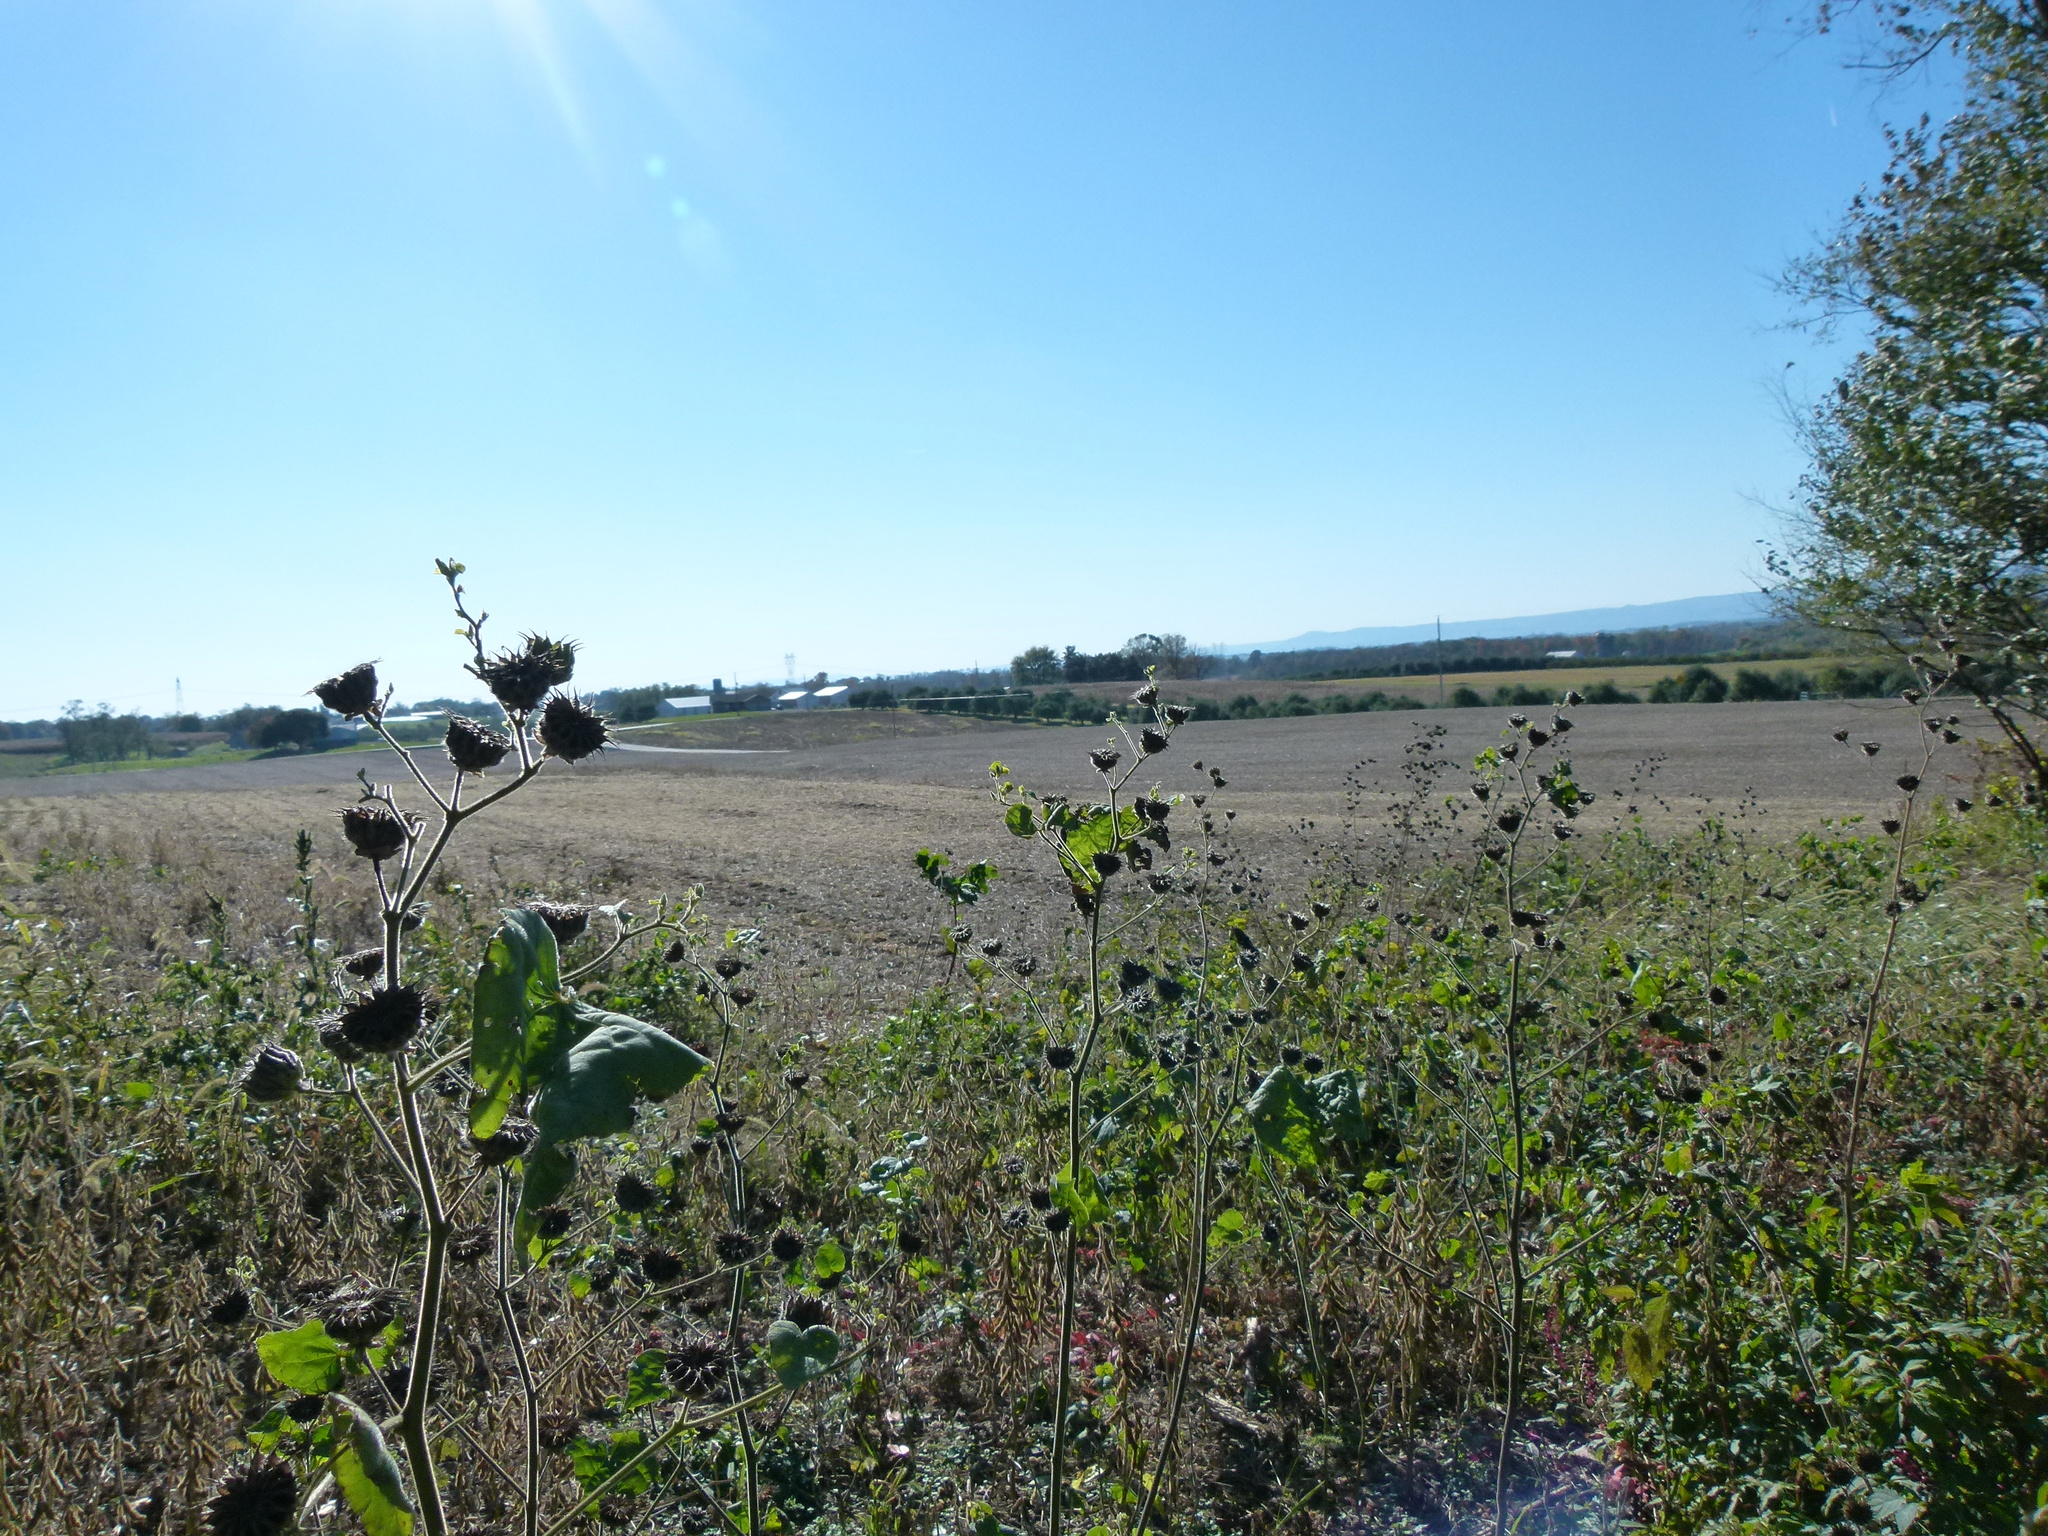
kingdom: Plantae
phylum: Tracheophyta
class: Magnoliopsida
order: Malvales
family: Malvaceae
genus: Abutilon
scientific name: Abutilon theophrasti
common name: Velvetleaf
